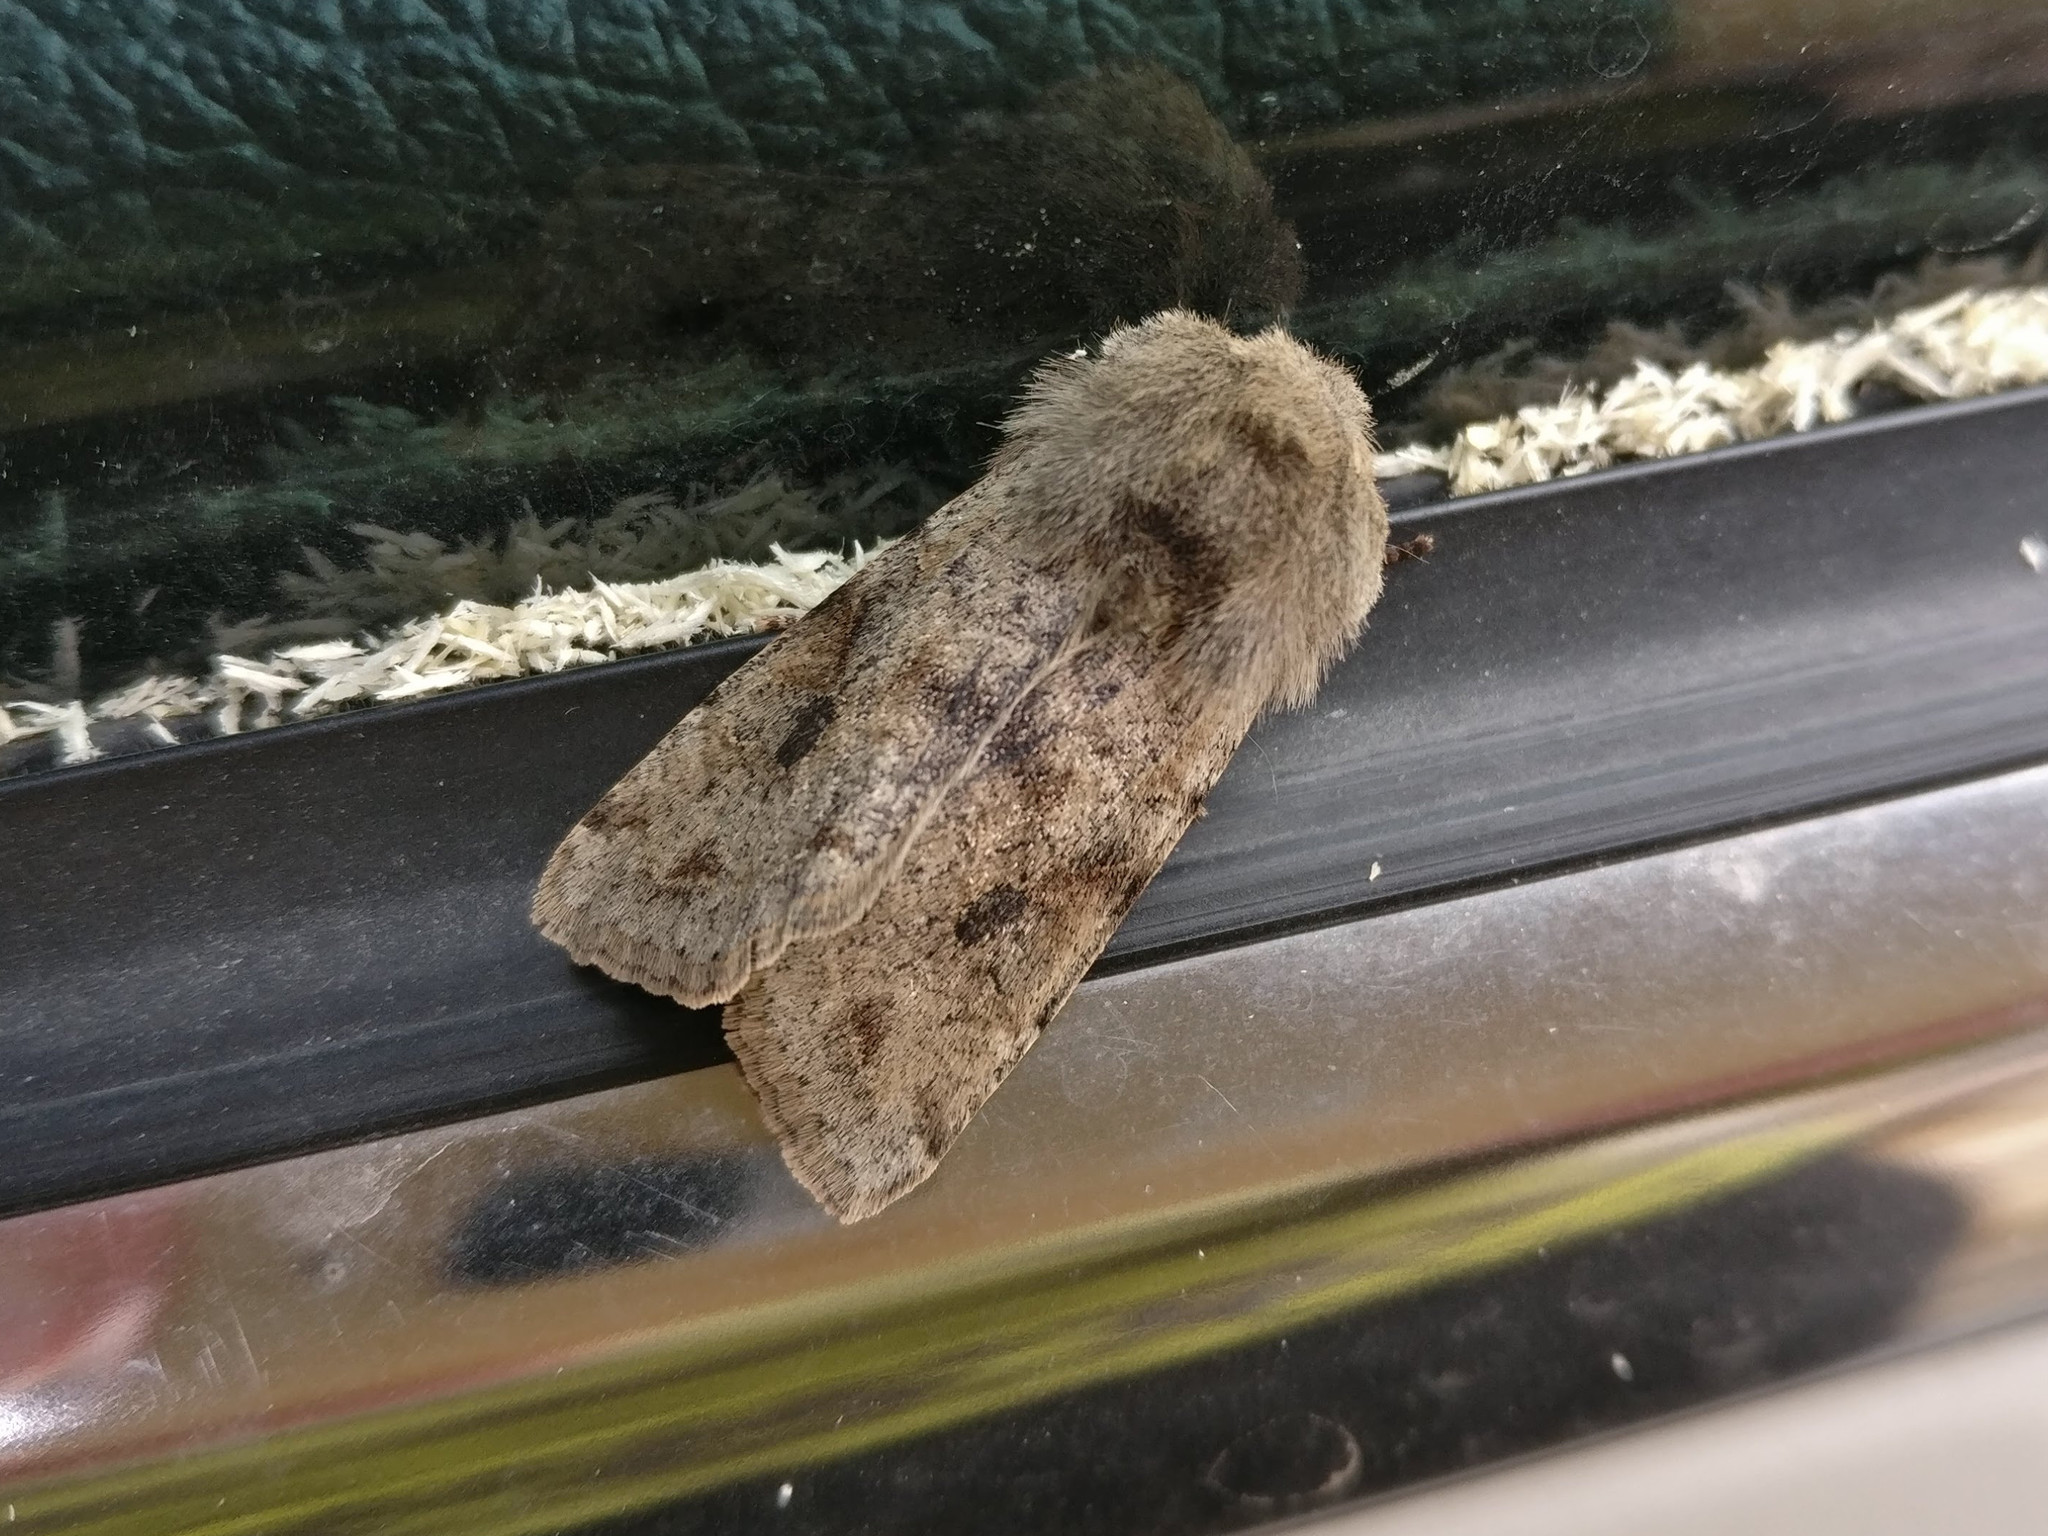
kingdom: Animalia
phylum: Arthropoda
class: Insecta
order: Lepidoptera
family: Noctuidae
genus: Orthosia
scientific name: Orthosia incerta
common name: Clouded drab
